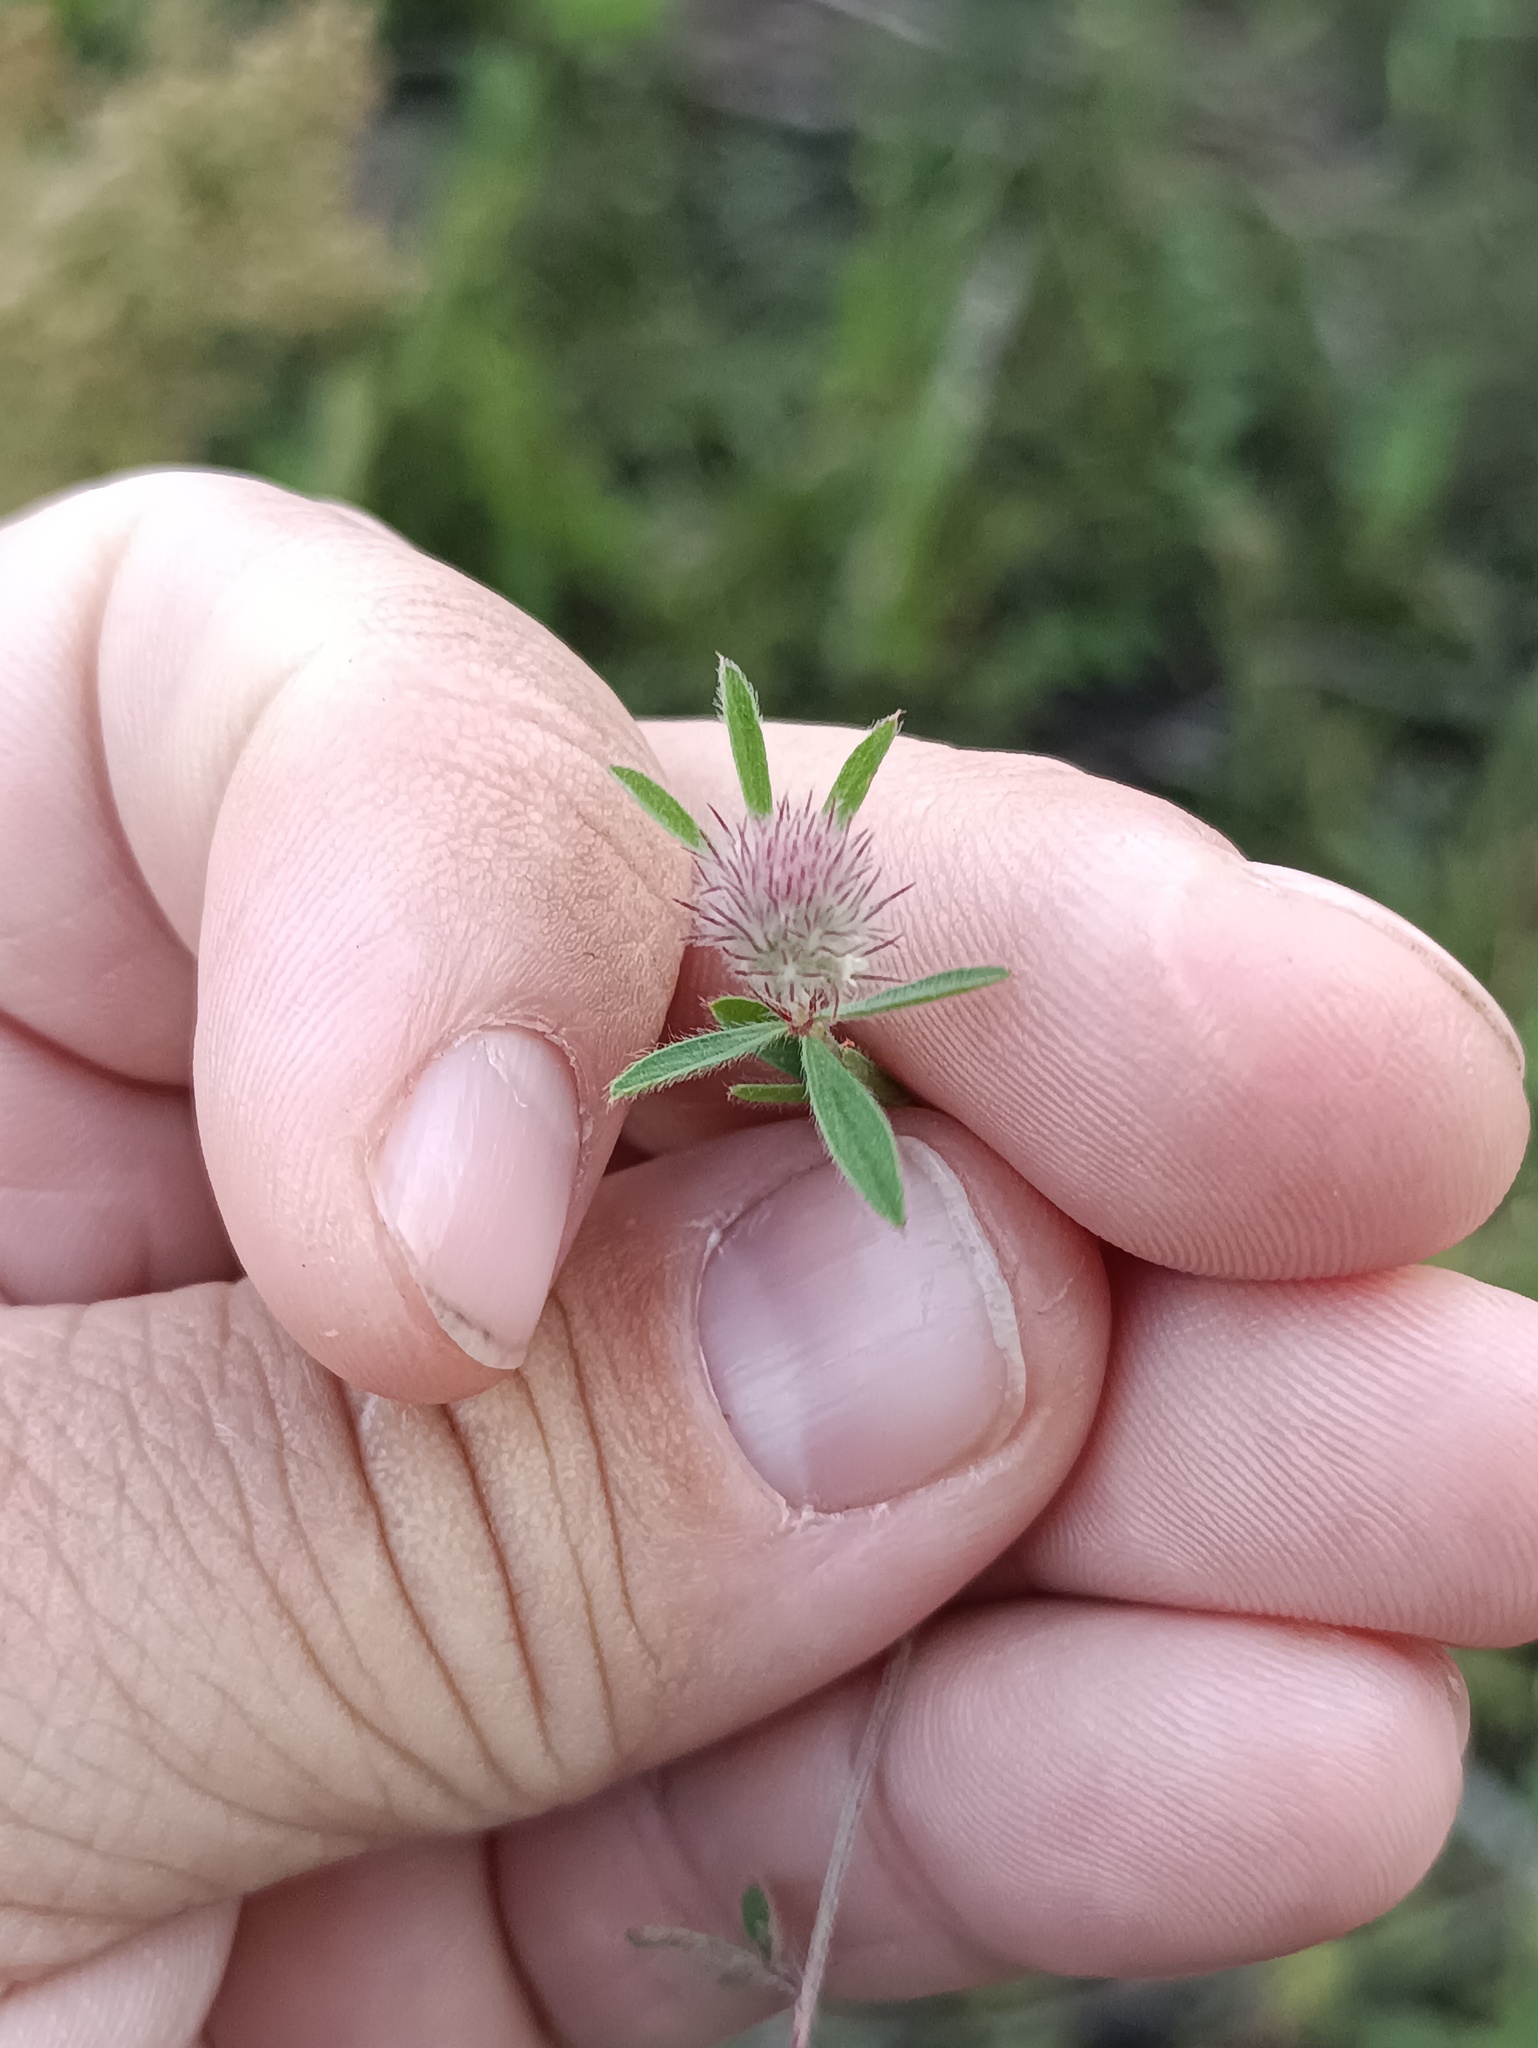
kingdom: Plantae
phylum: Tracheophyta
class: Magnoliopsida
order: Fabales
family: Fabaceae
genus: Trifolium
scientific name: Trifolium arvense
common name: Hare's-foot clover
